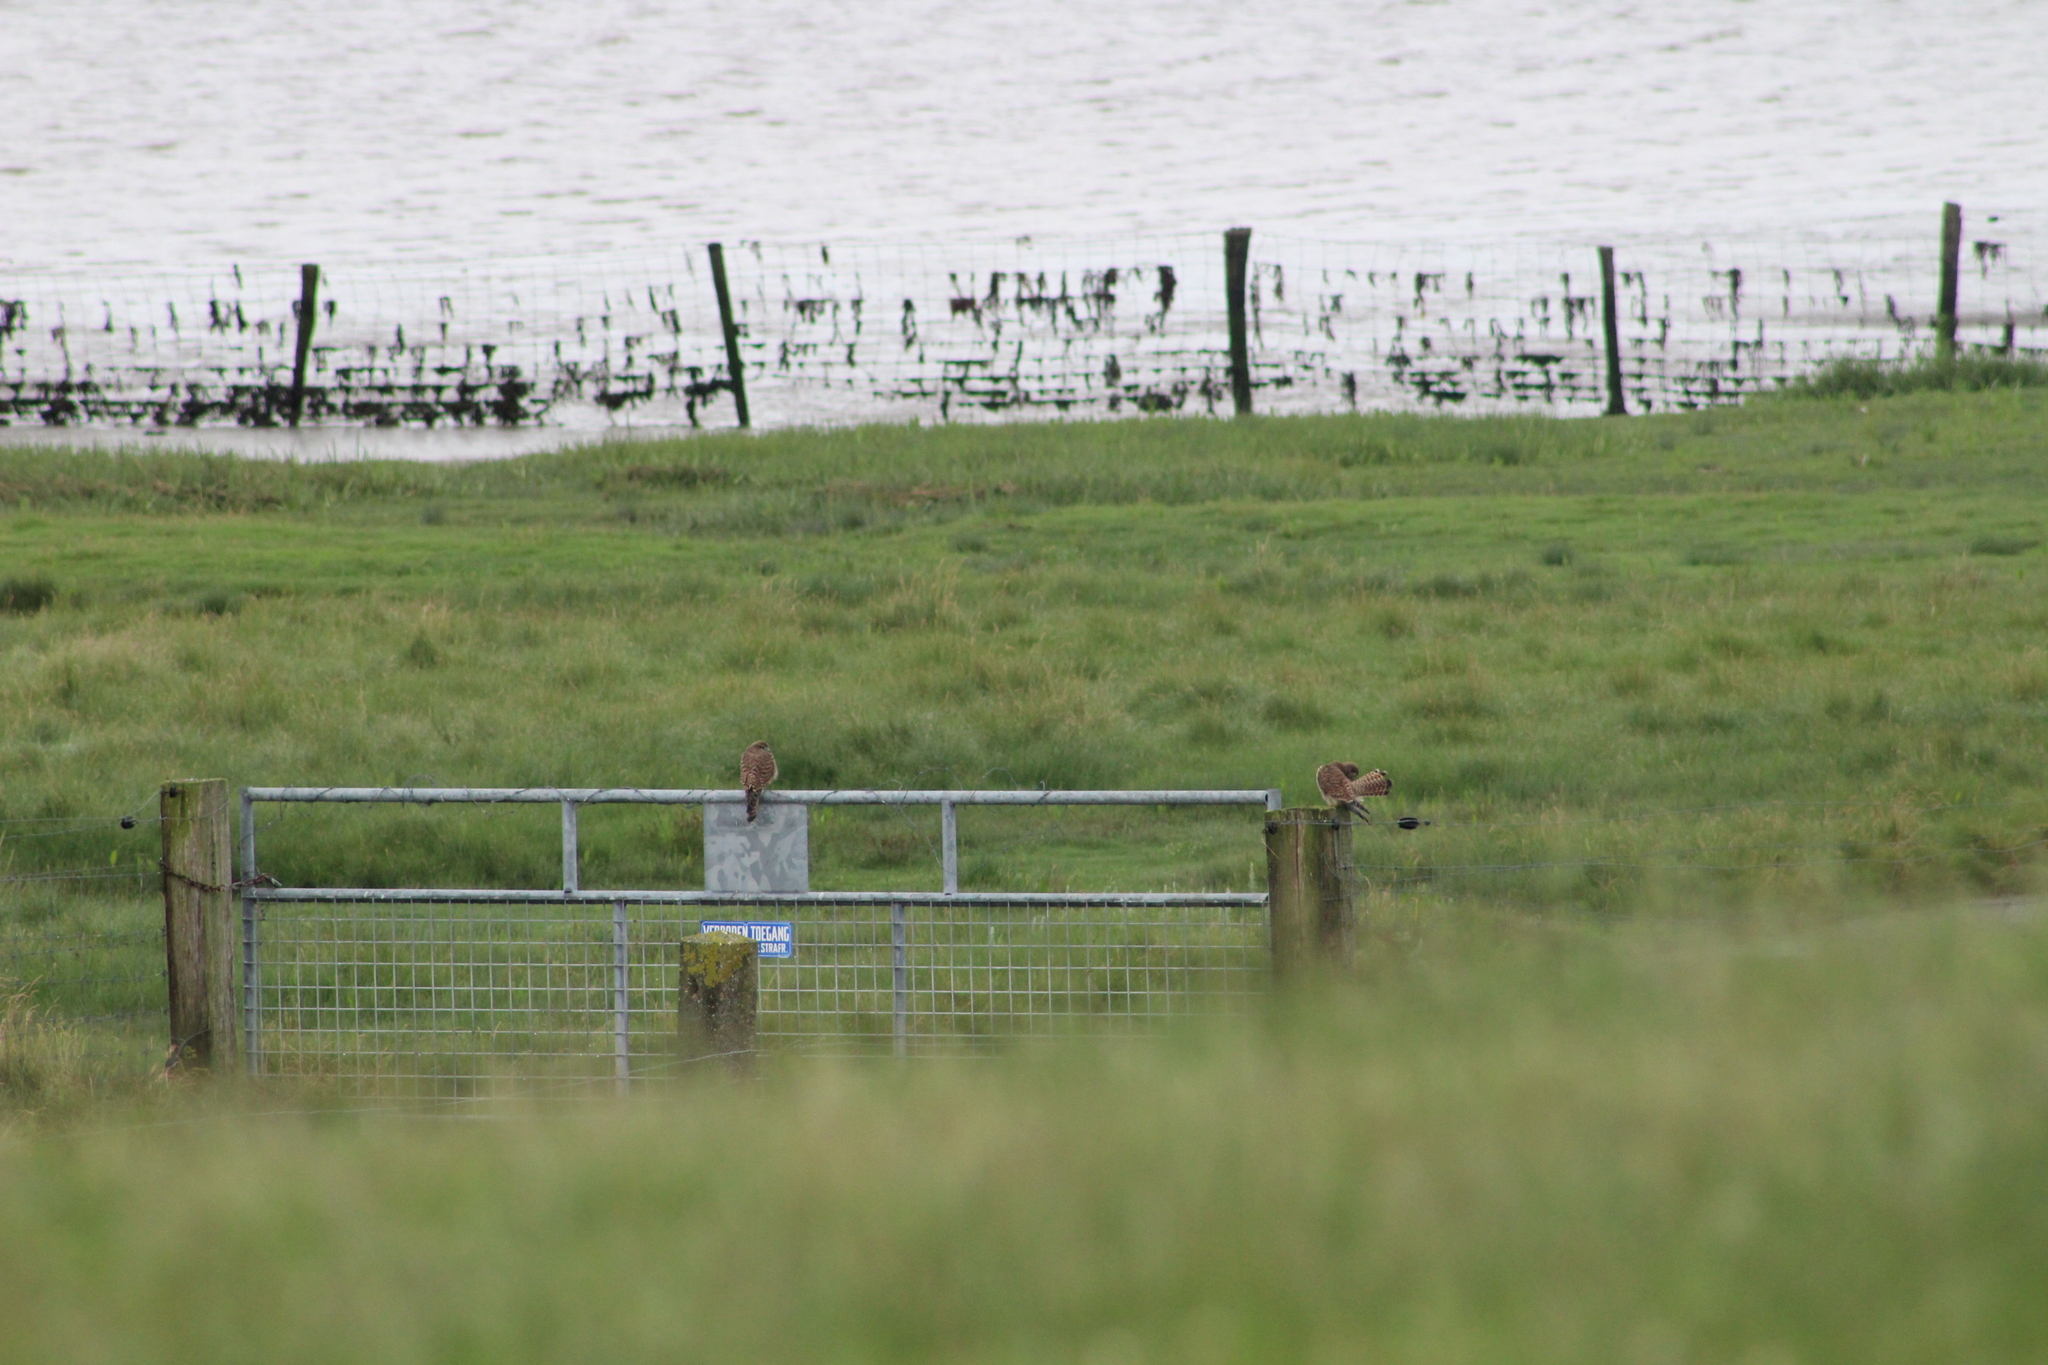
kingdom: Animalia
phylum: Chordata
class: Aves
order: Falconiformes
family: Falconidae
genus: Falco
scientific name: Falco tinnunculus
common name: Common kestrel
